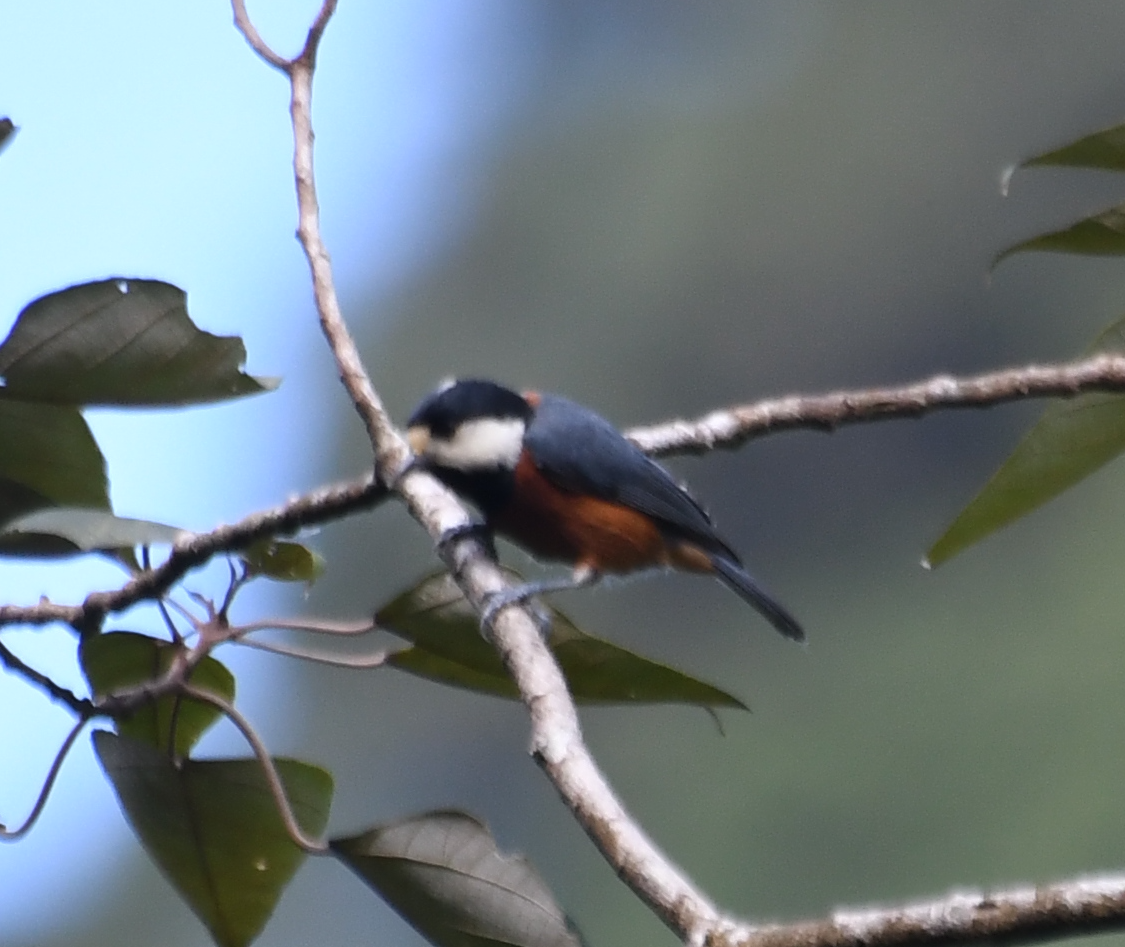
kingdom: Animalia
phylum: Chordata
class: Aves
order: Passeriformes
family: Paridae
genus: Poecile
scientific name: Poecile varius
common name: Varied tit
